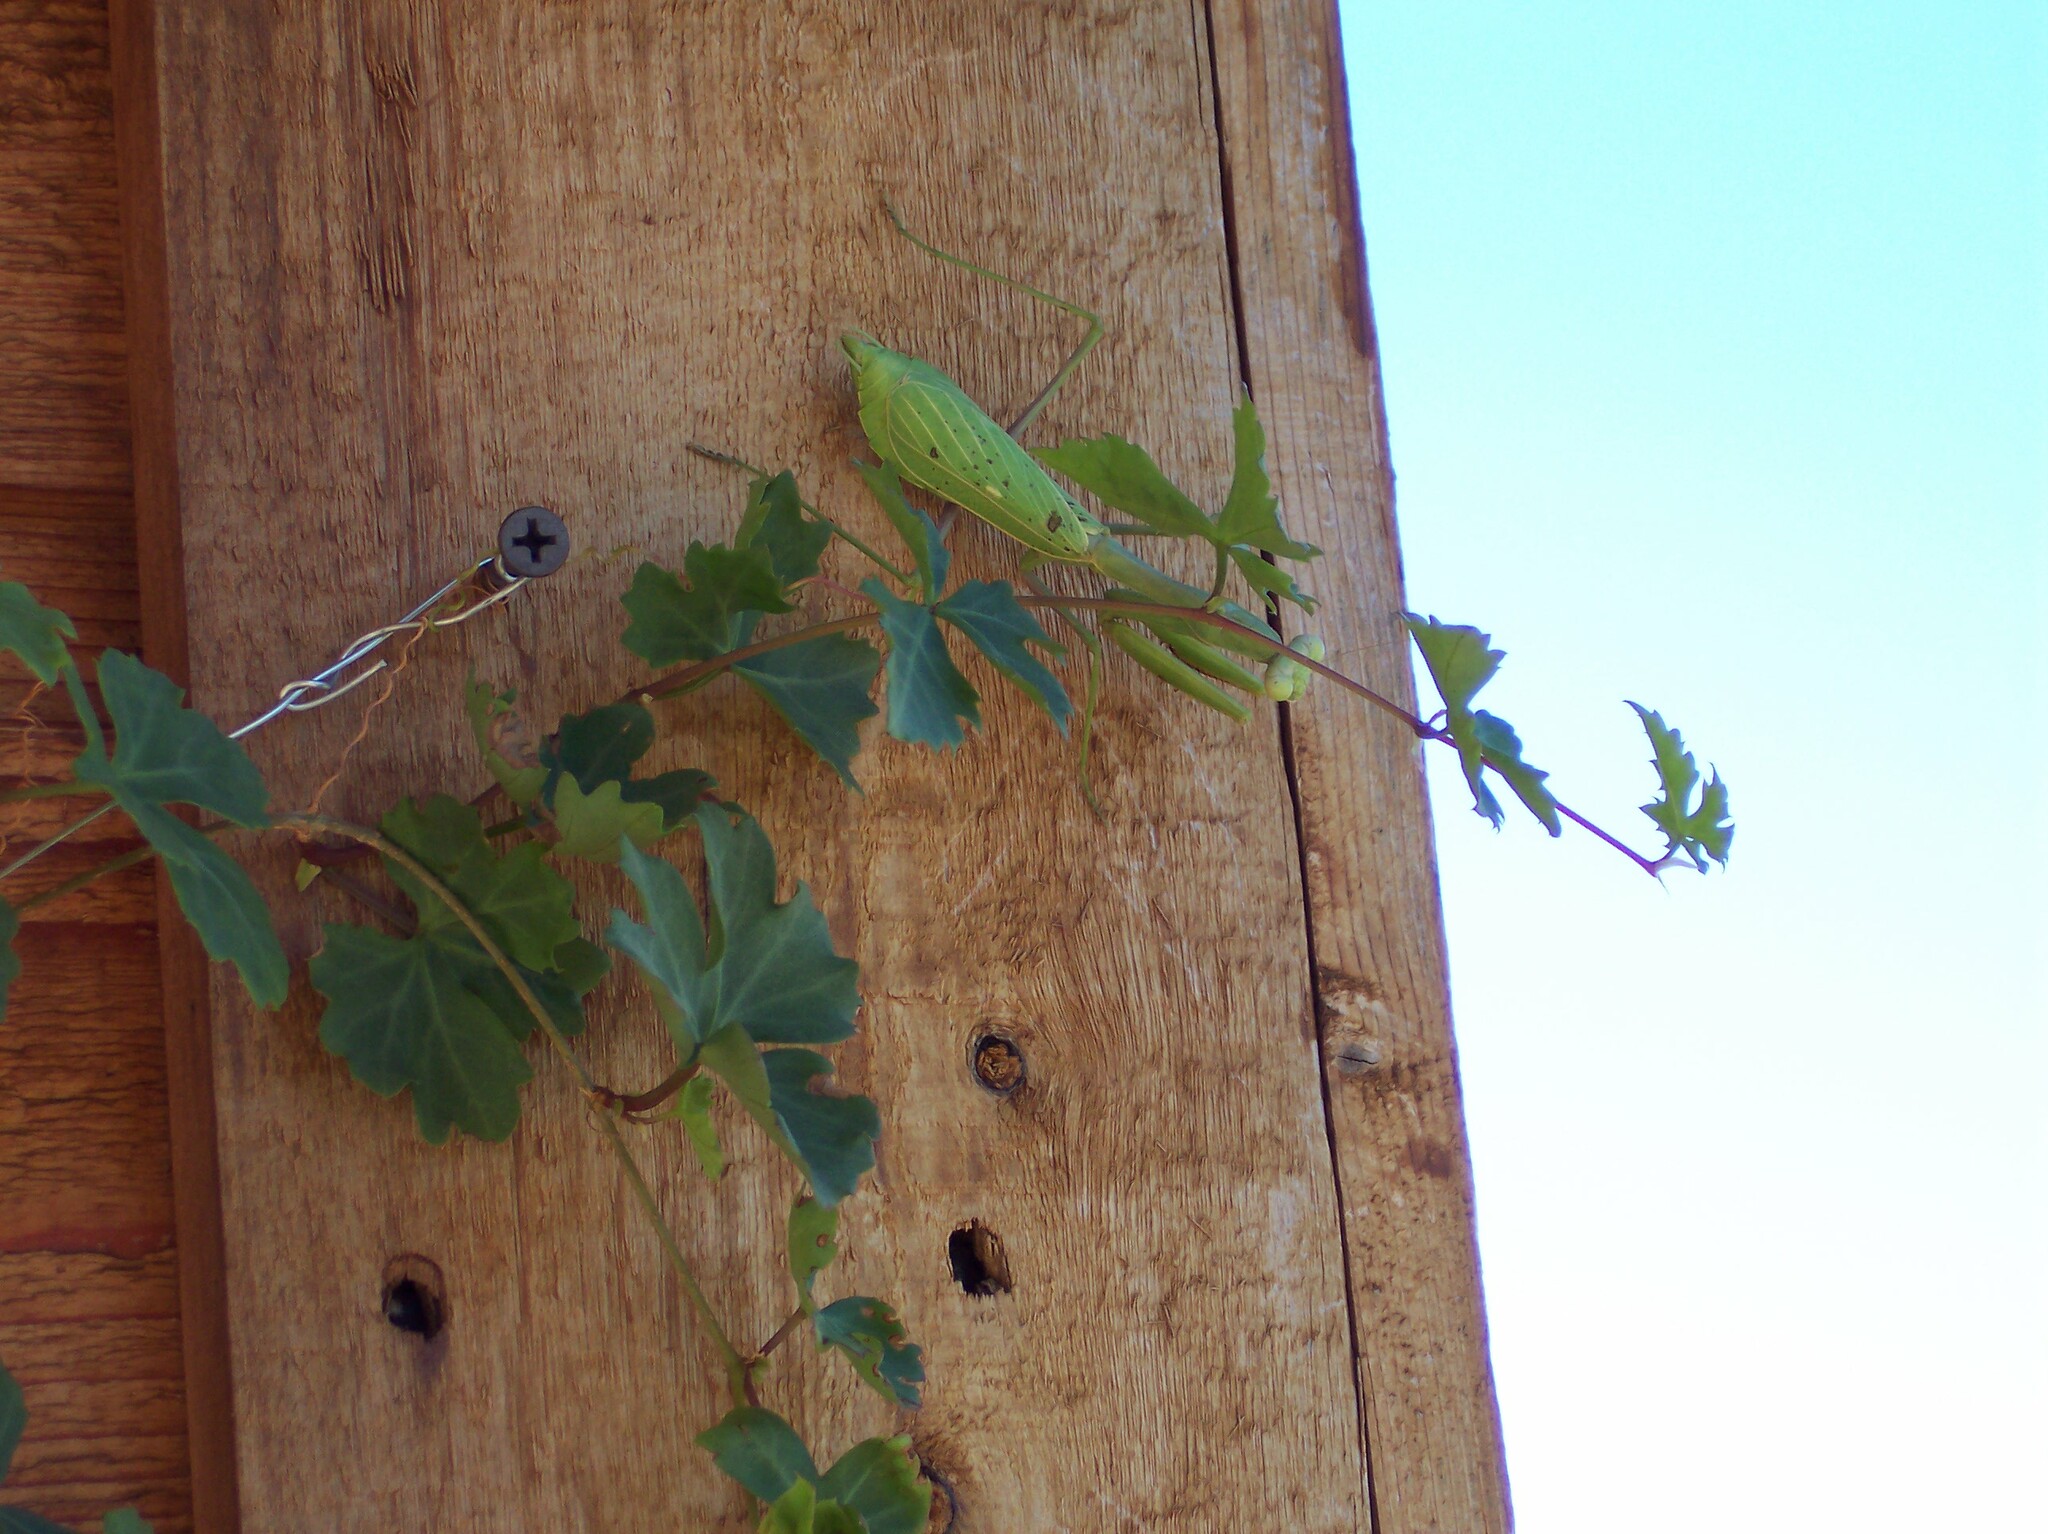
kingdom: Plantae
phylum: Tracheophyta
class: Magnoliopsida
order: Vitales
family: Vitaceae
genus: Cissus
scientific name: Cissus trifoliata
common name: Vine-sorrel
